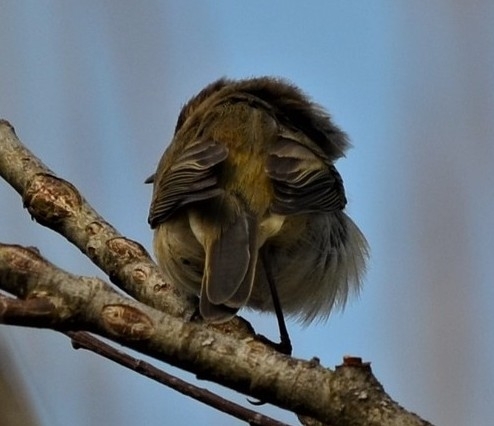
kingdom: Animalia
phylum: Chordata
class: Aves
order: Passeriformes
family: Phylloscopidae
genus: Phylloscopus
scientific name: Phylloscopus collybita
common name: Common chiffchaff
